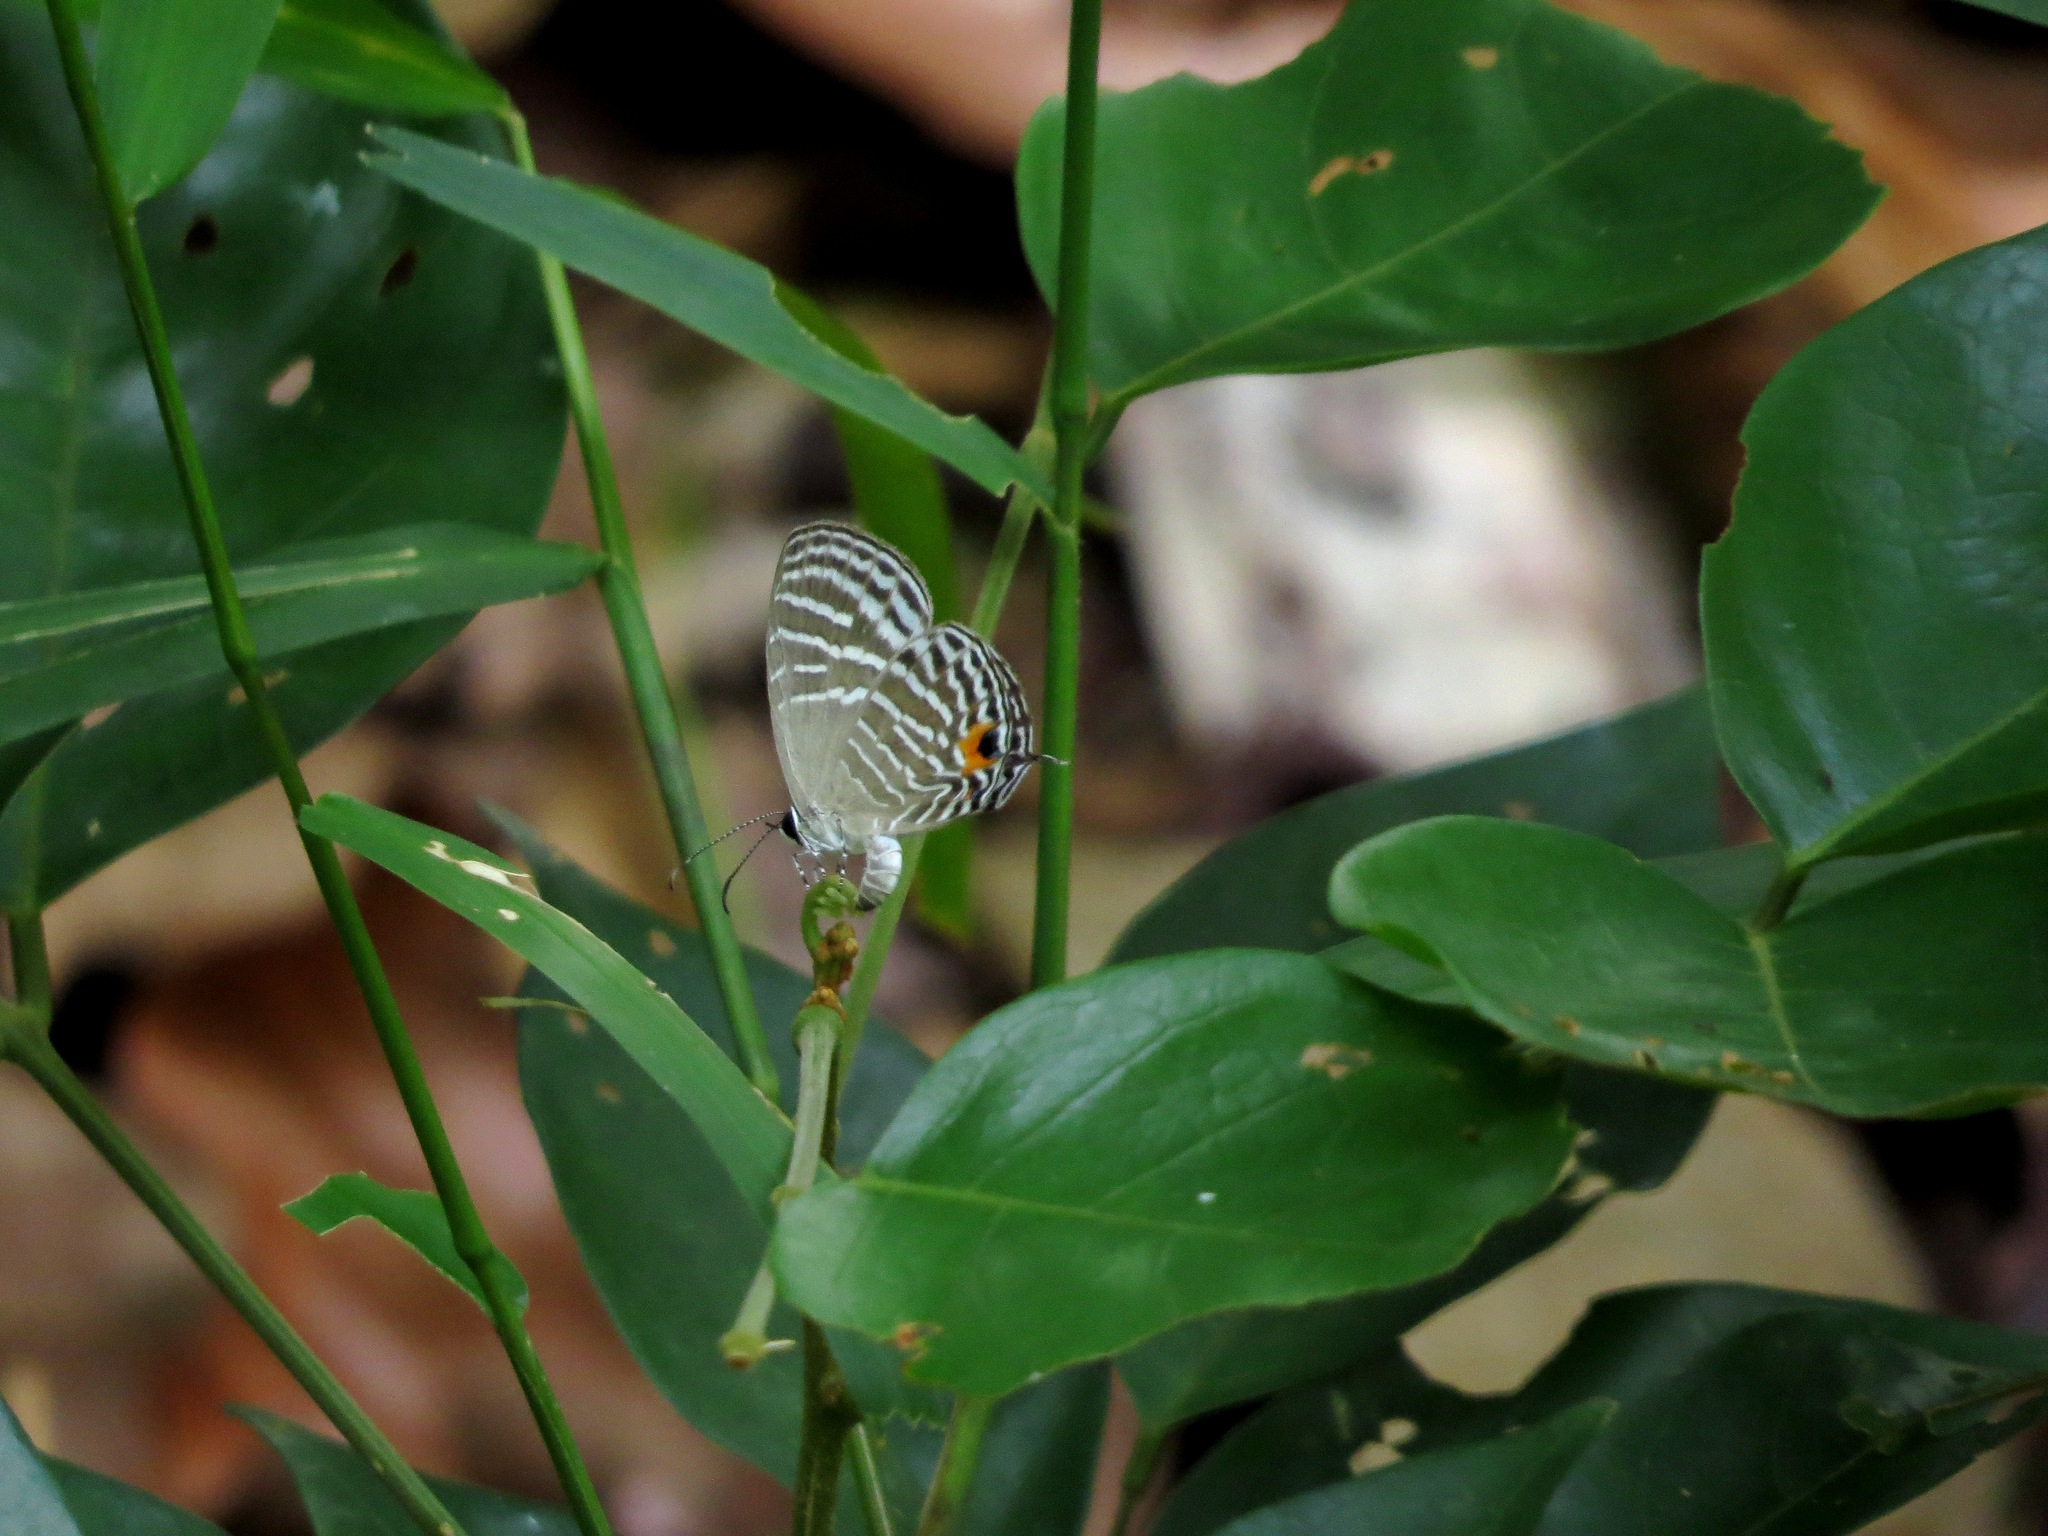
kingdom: Animalia
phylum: Arthropoda
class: Insecta
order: Lepidoptera
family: Lycaenidae
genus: Jamides
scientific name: Jamides celeno
